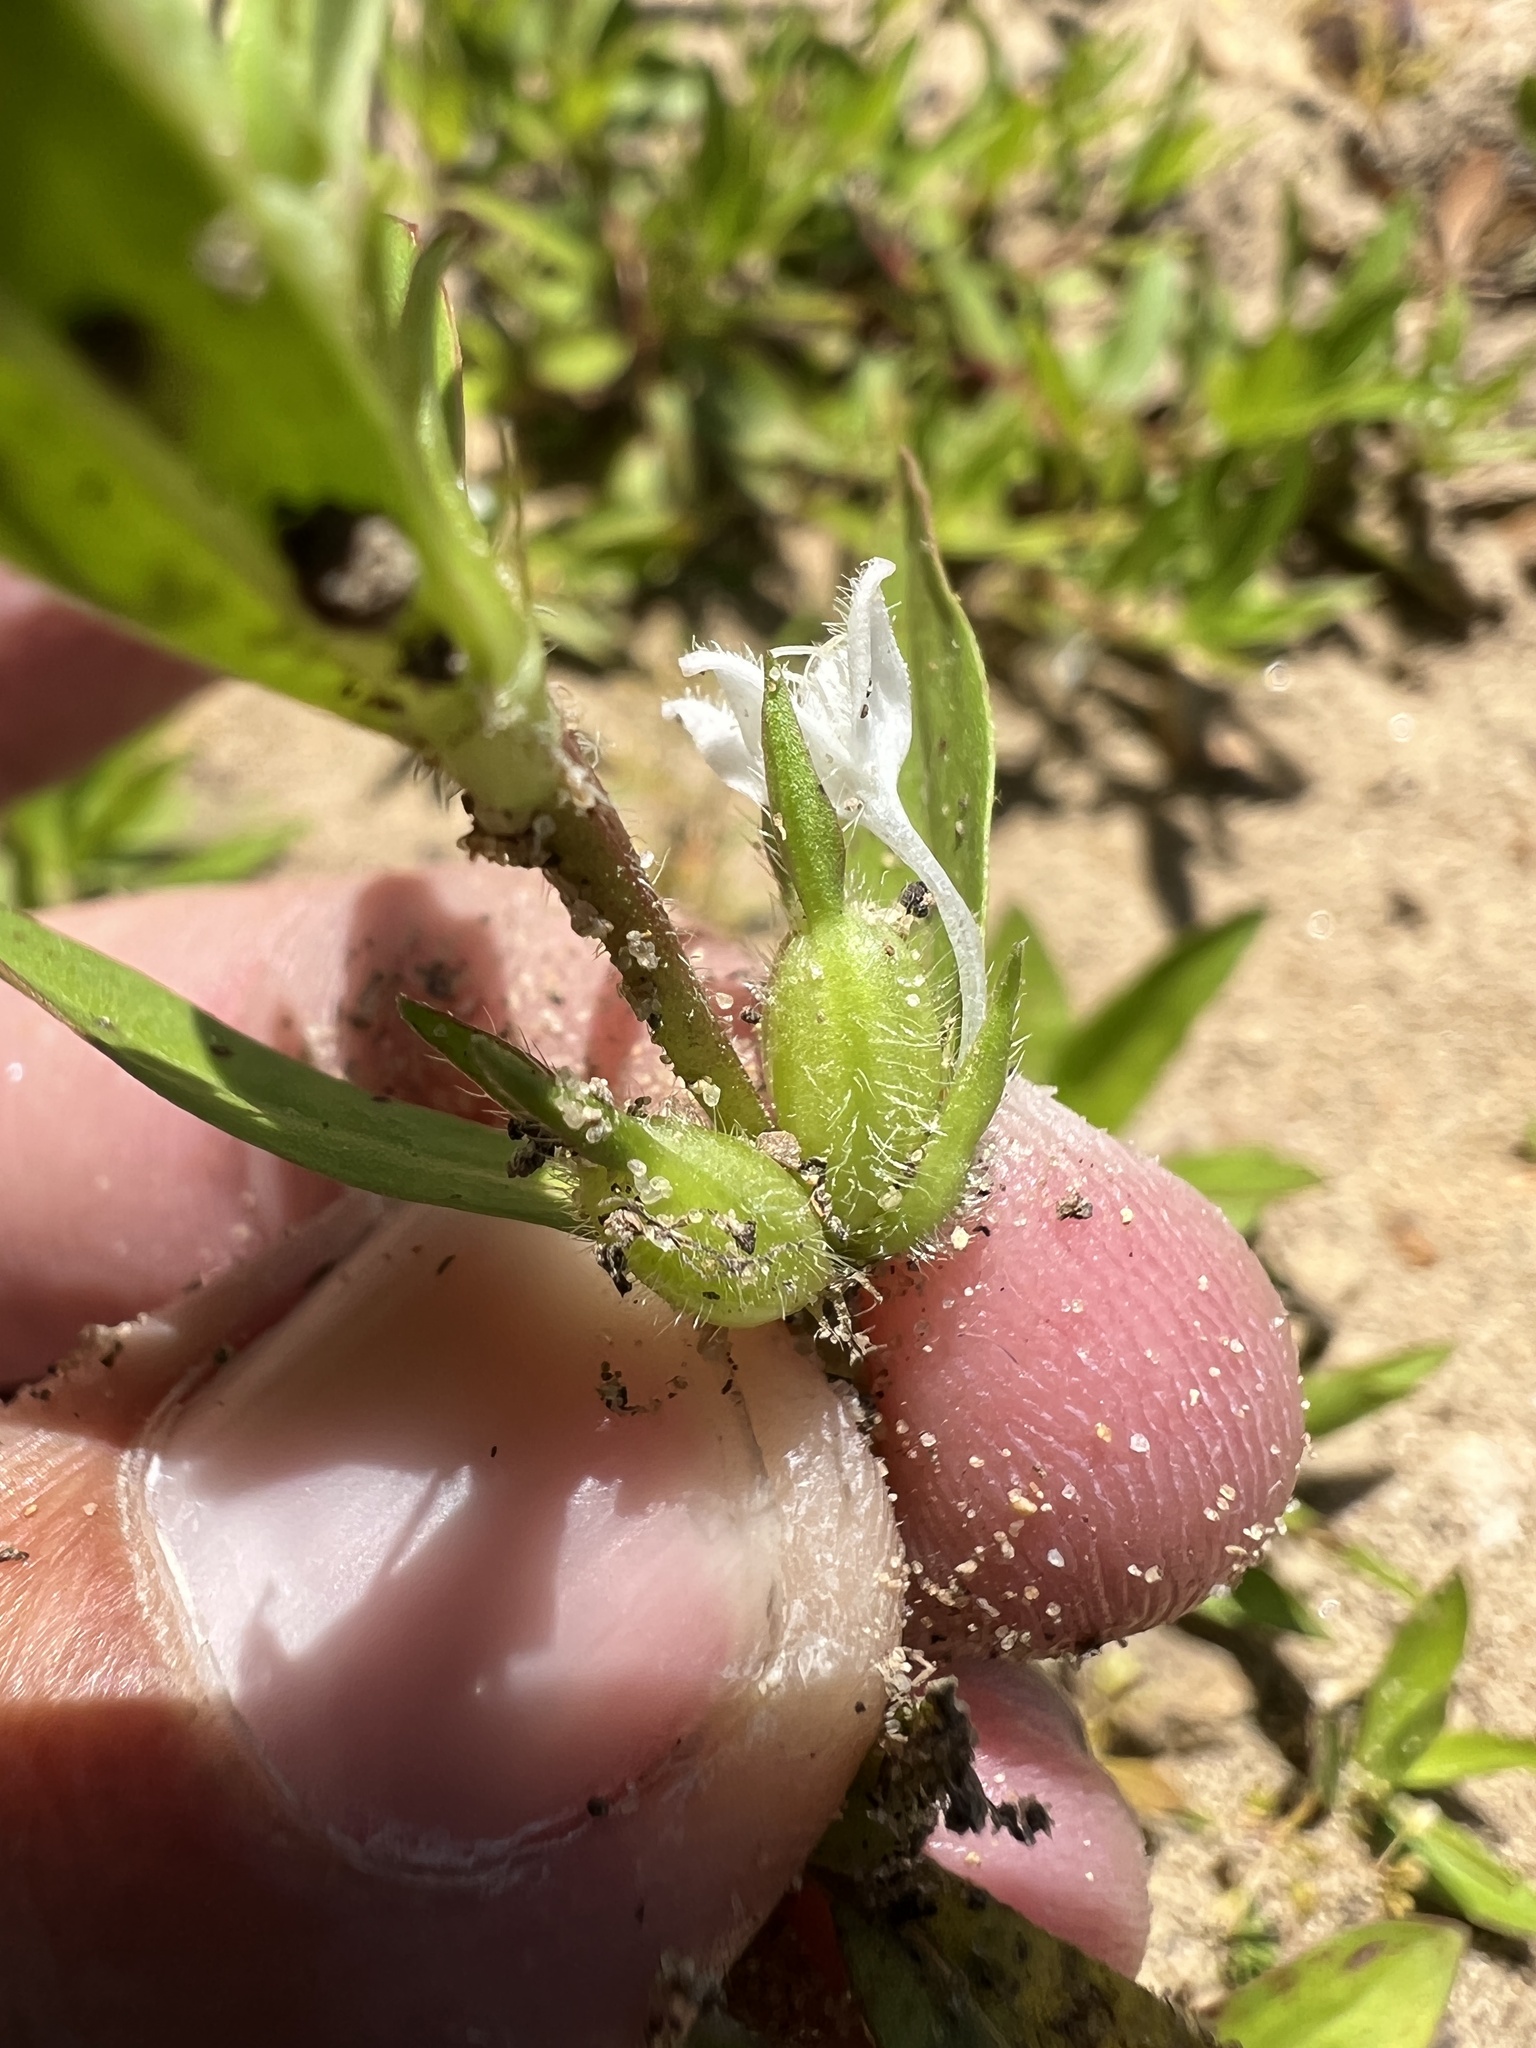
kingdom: Plantae
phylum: Tracheophyta
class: Magnoliopsida
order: Gentianales
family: Rubiaceae
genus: Diodia
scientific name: Diodia virginiana
